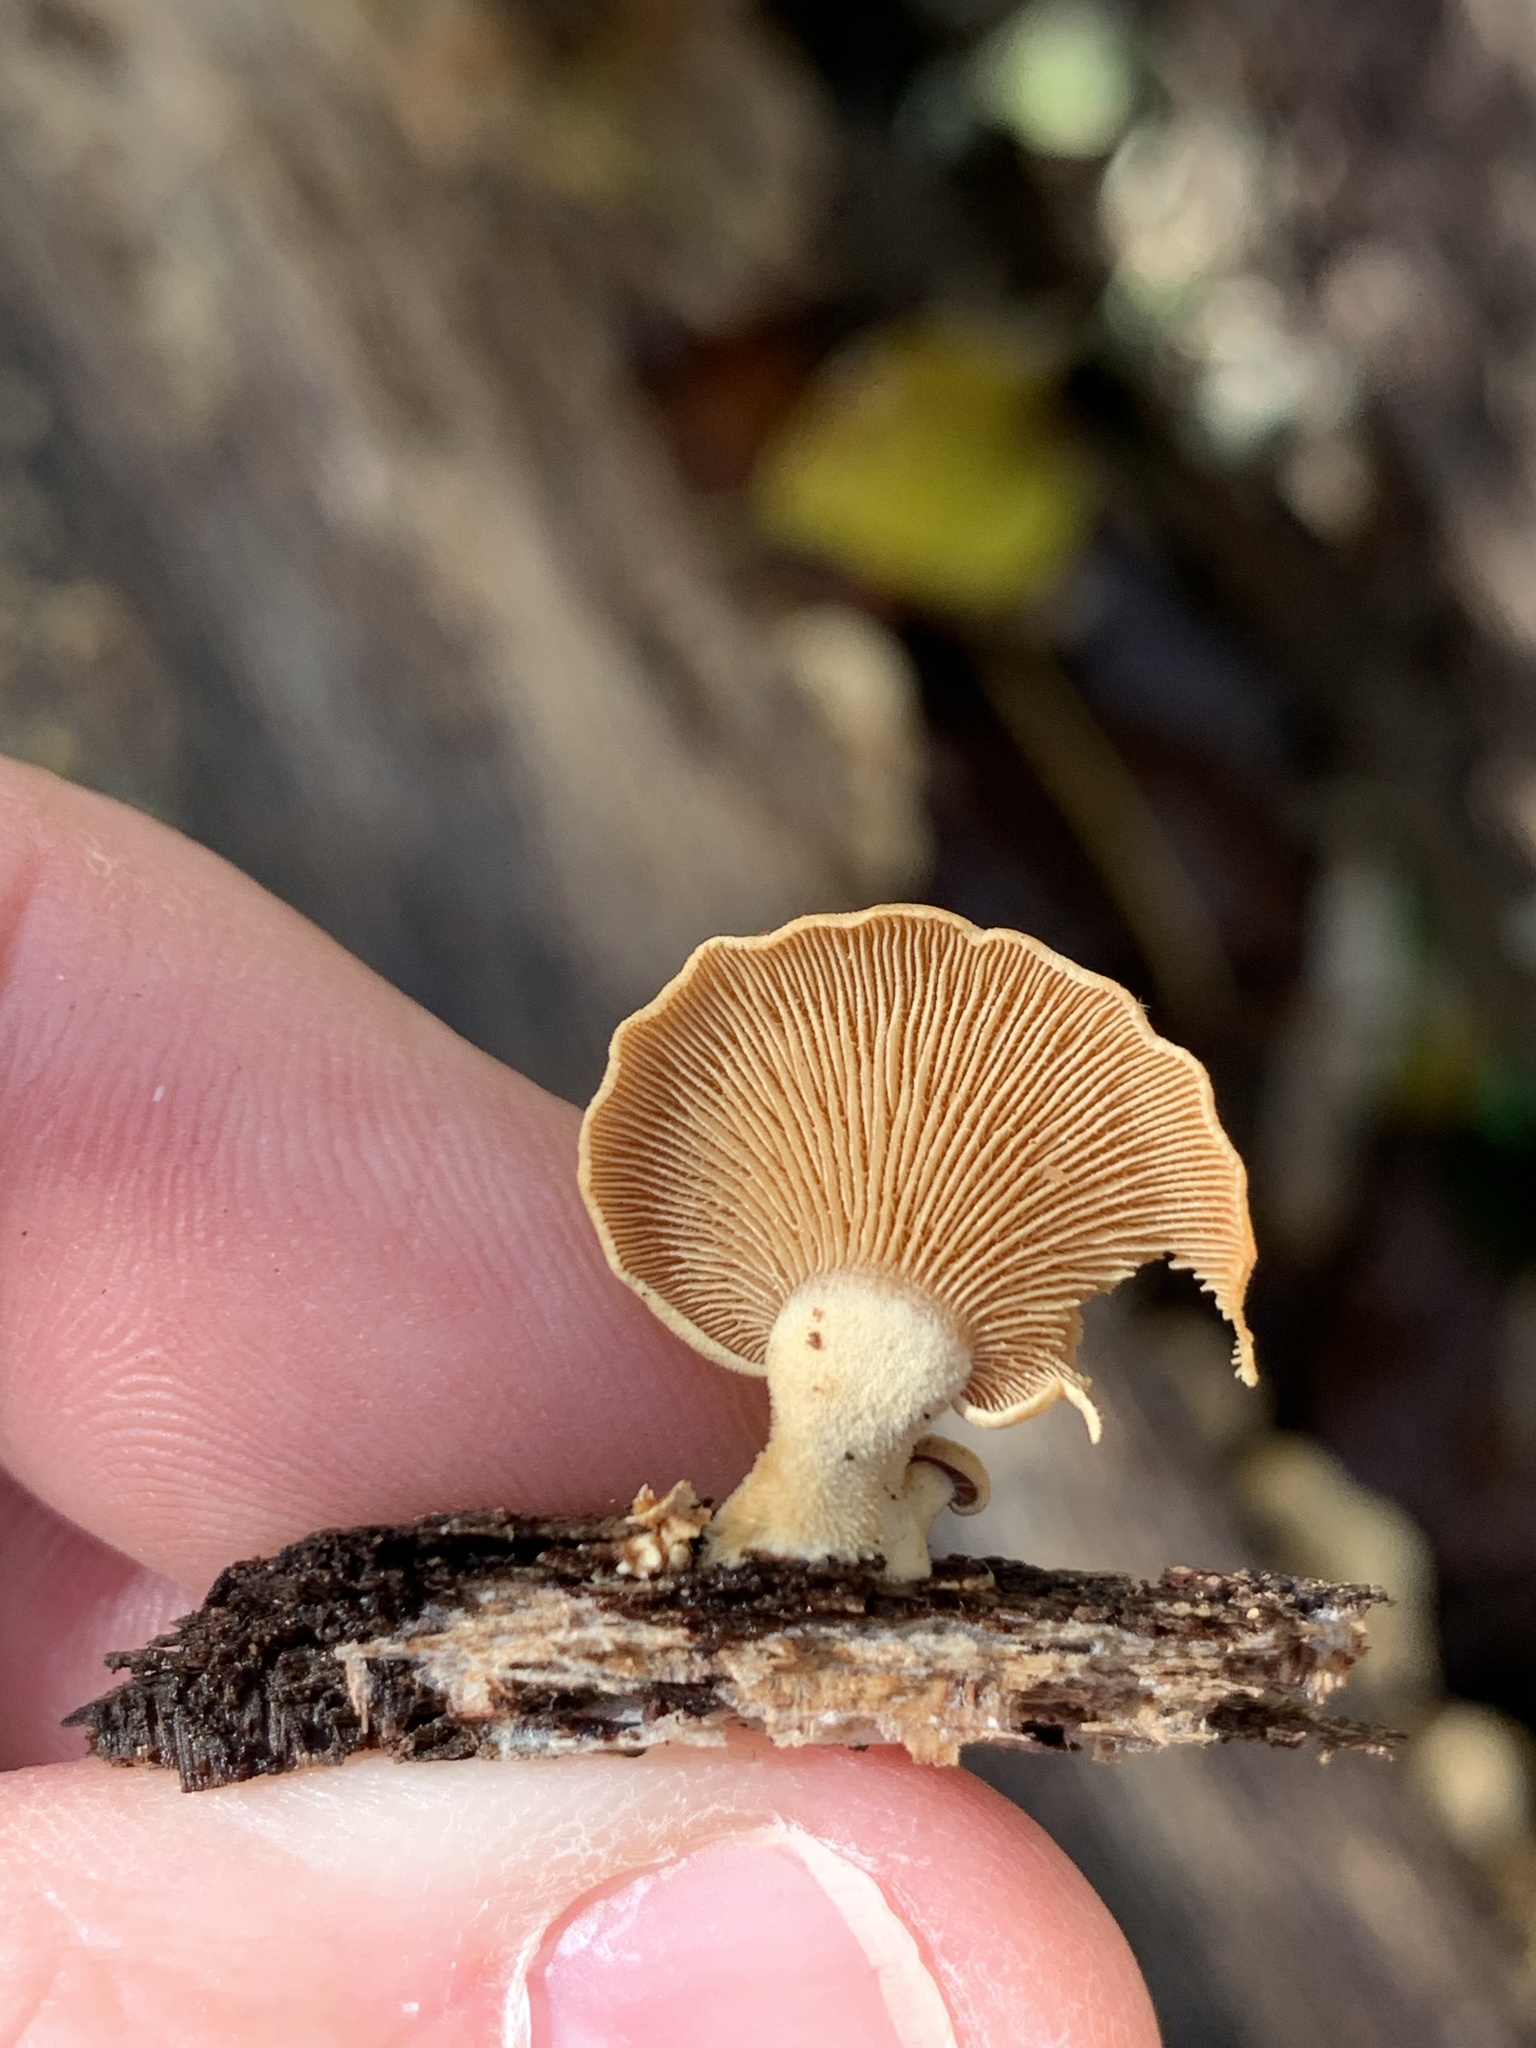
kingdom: Fungi
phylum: Basidiomycota
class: Agaricomycetes
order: Agaricales
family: Mycenaceae
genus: Panellus
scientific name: Panellus stipticus
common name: Bitter oysterling
